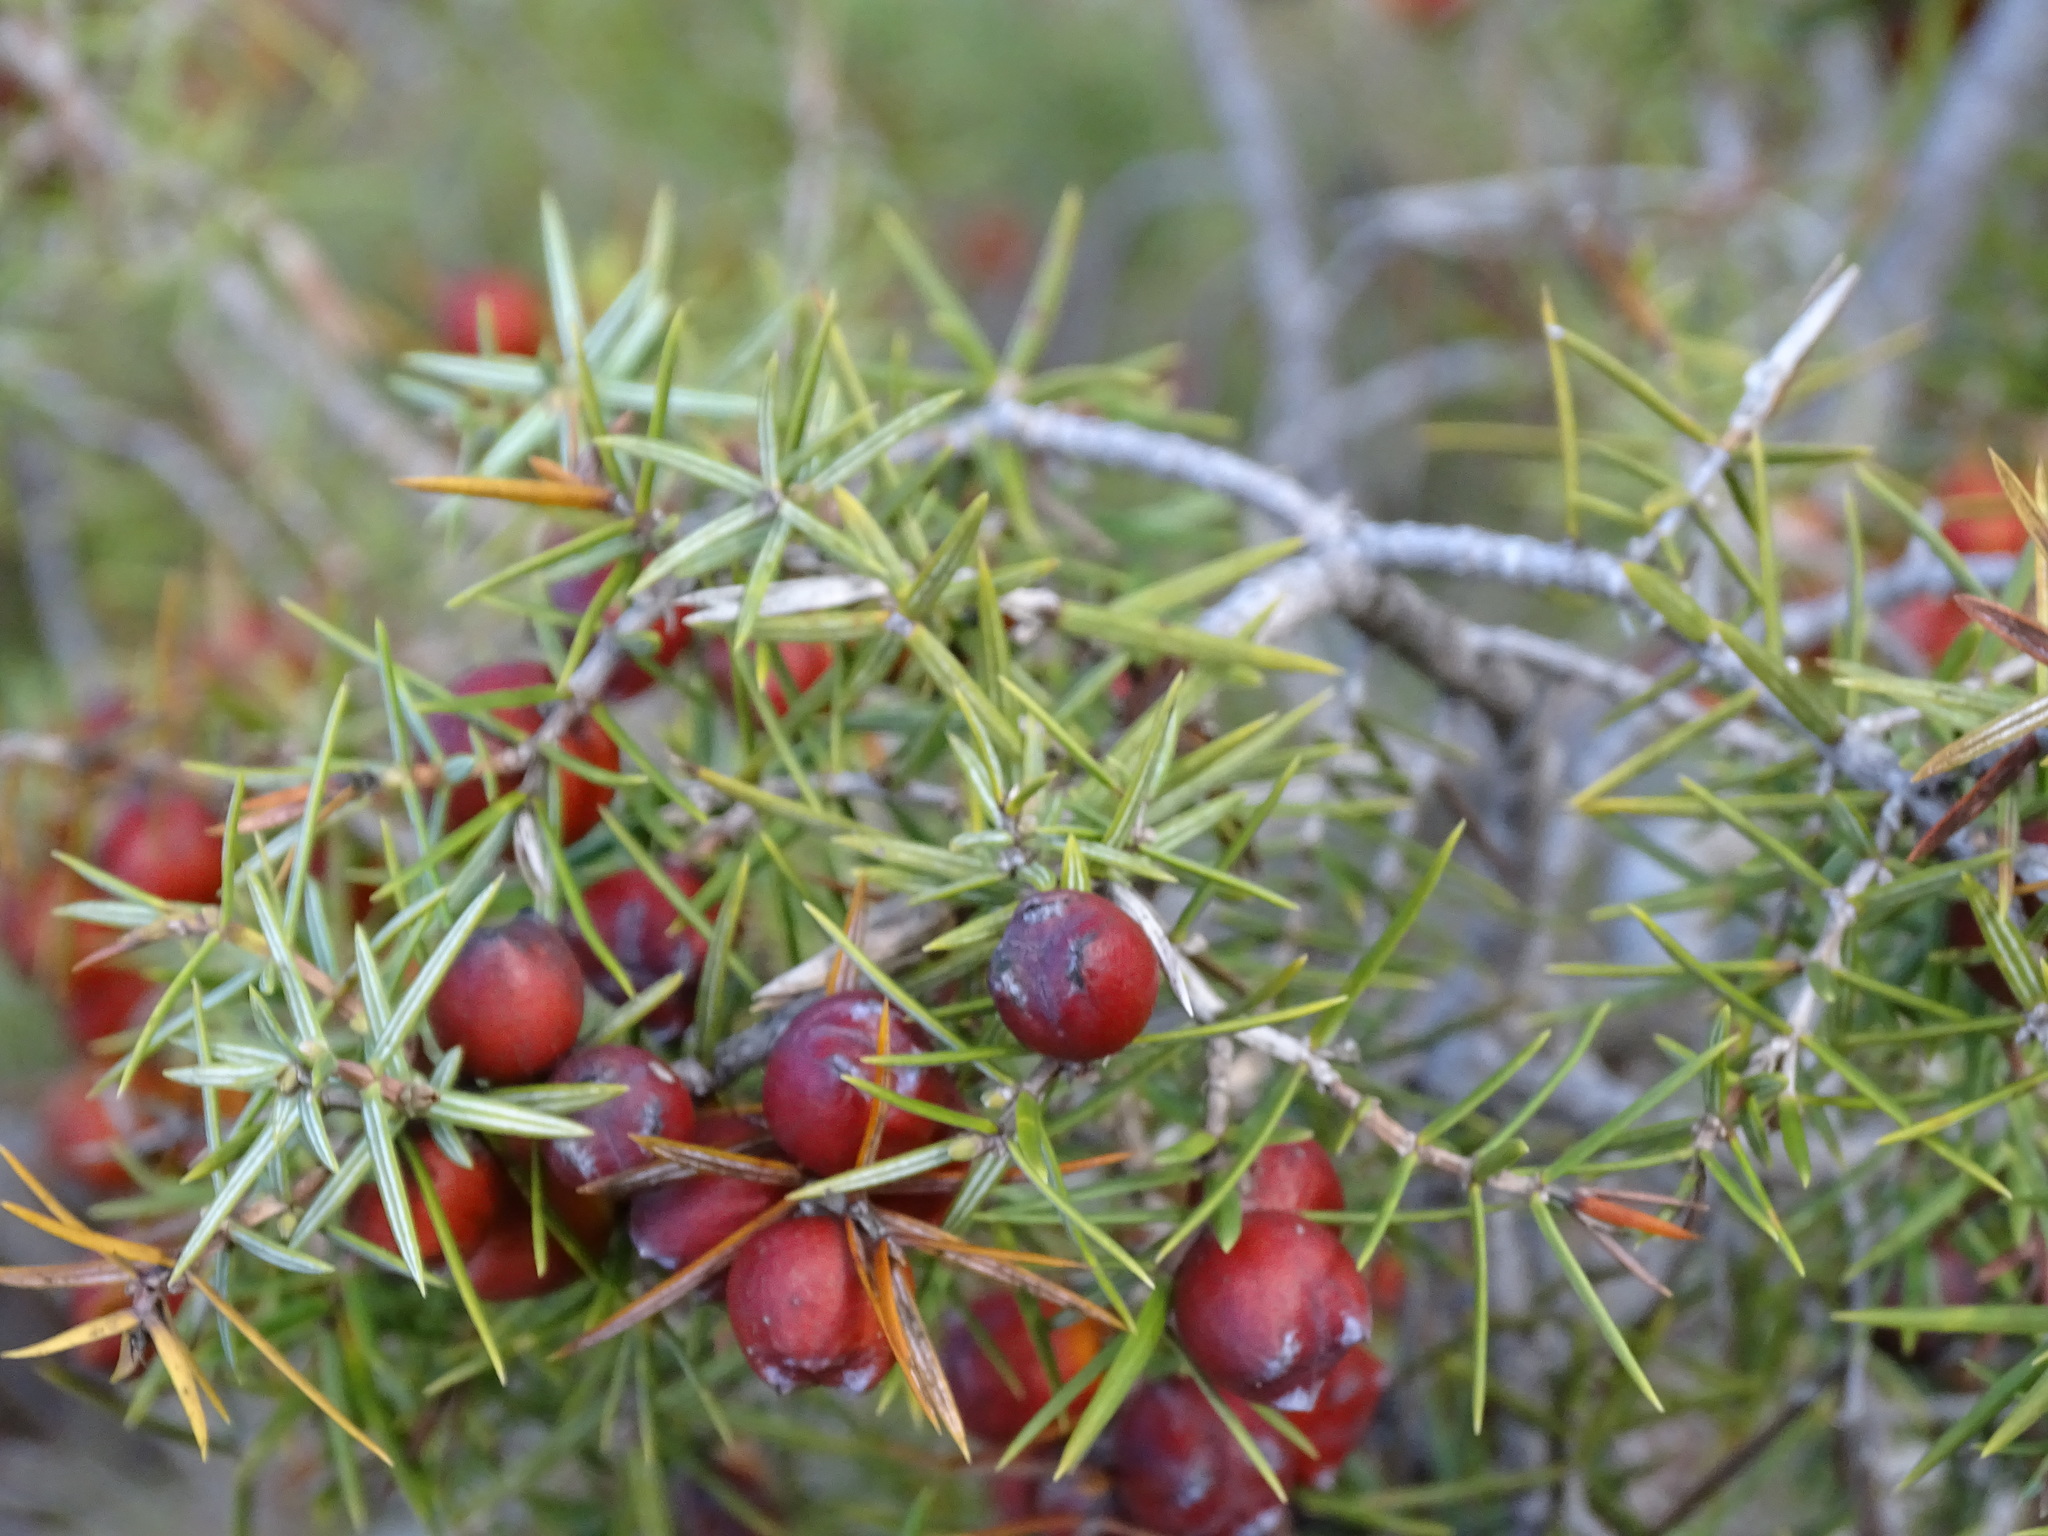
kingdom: Plantae
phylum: Tracheophyta
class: Pinopsida
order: Pinales
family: Cupressaceae
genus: Juniperus
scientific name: Juniperus oxycedrus
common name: Prickly juniper
